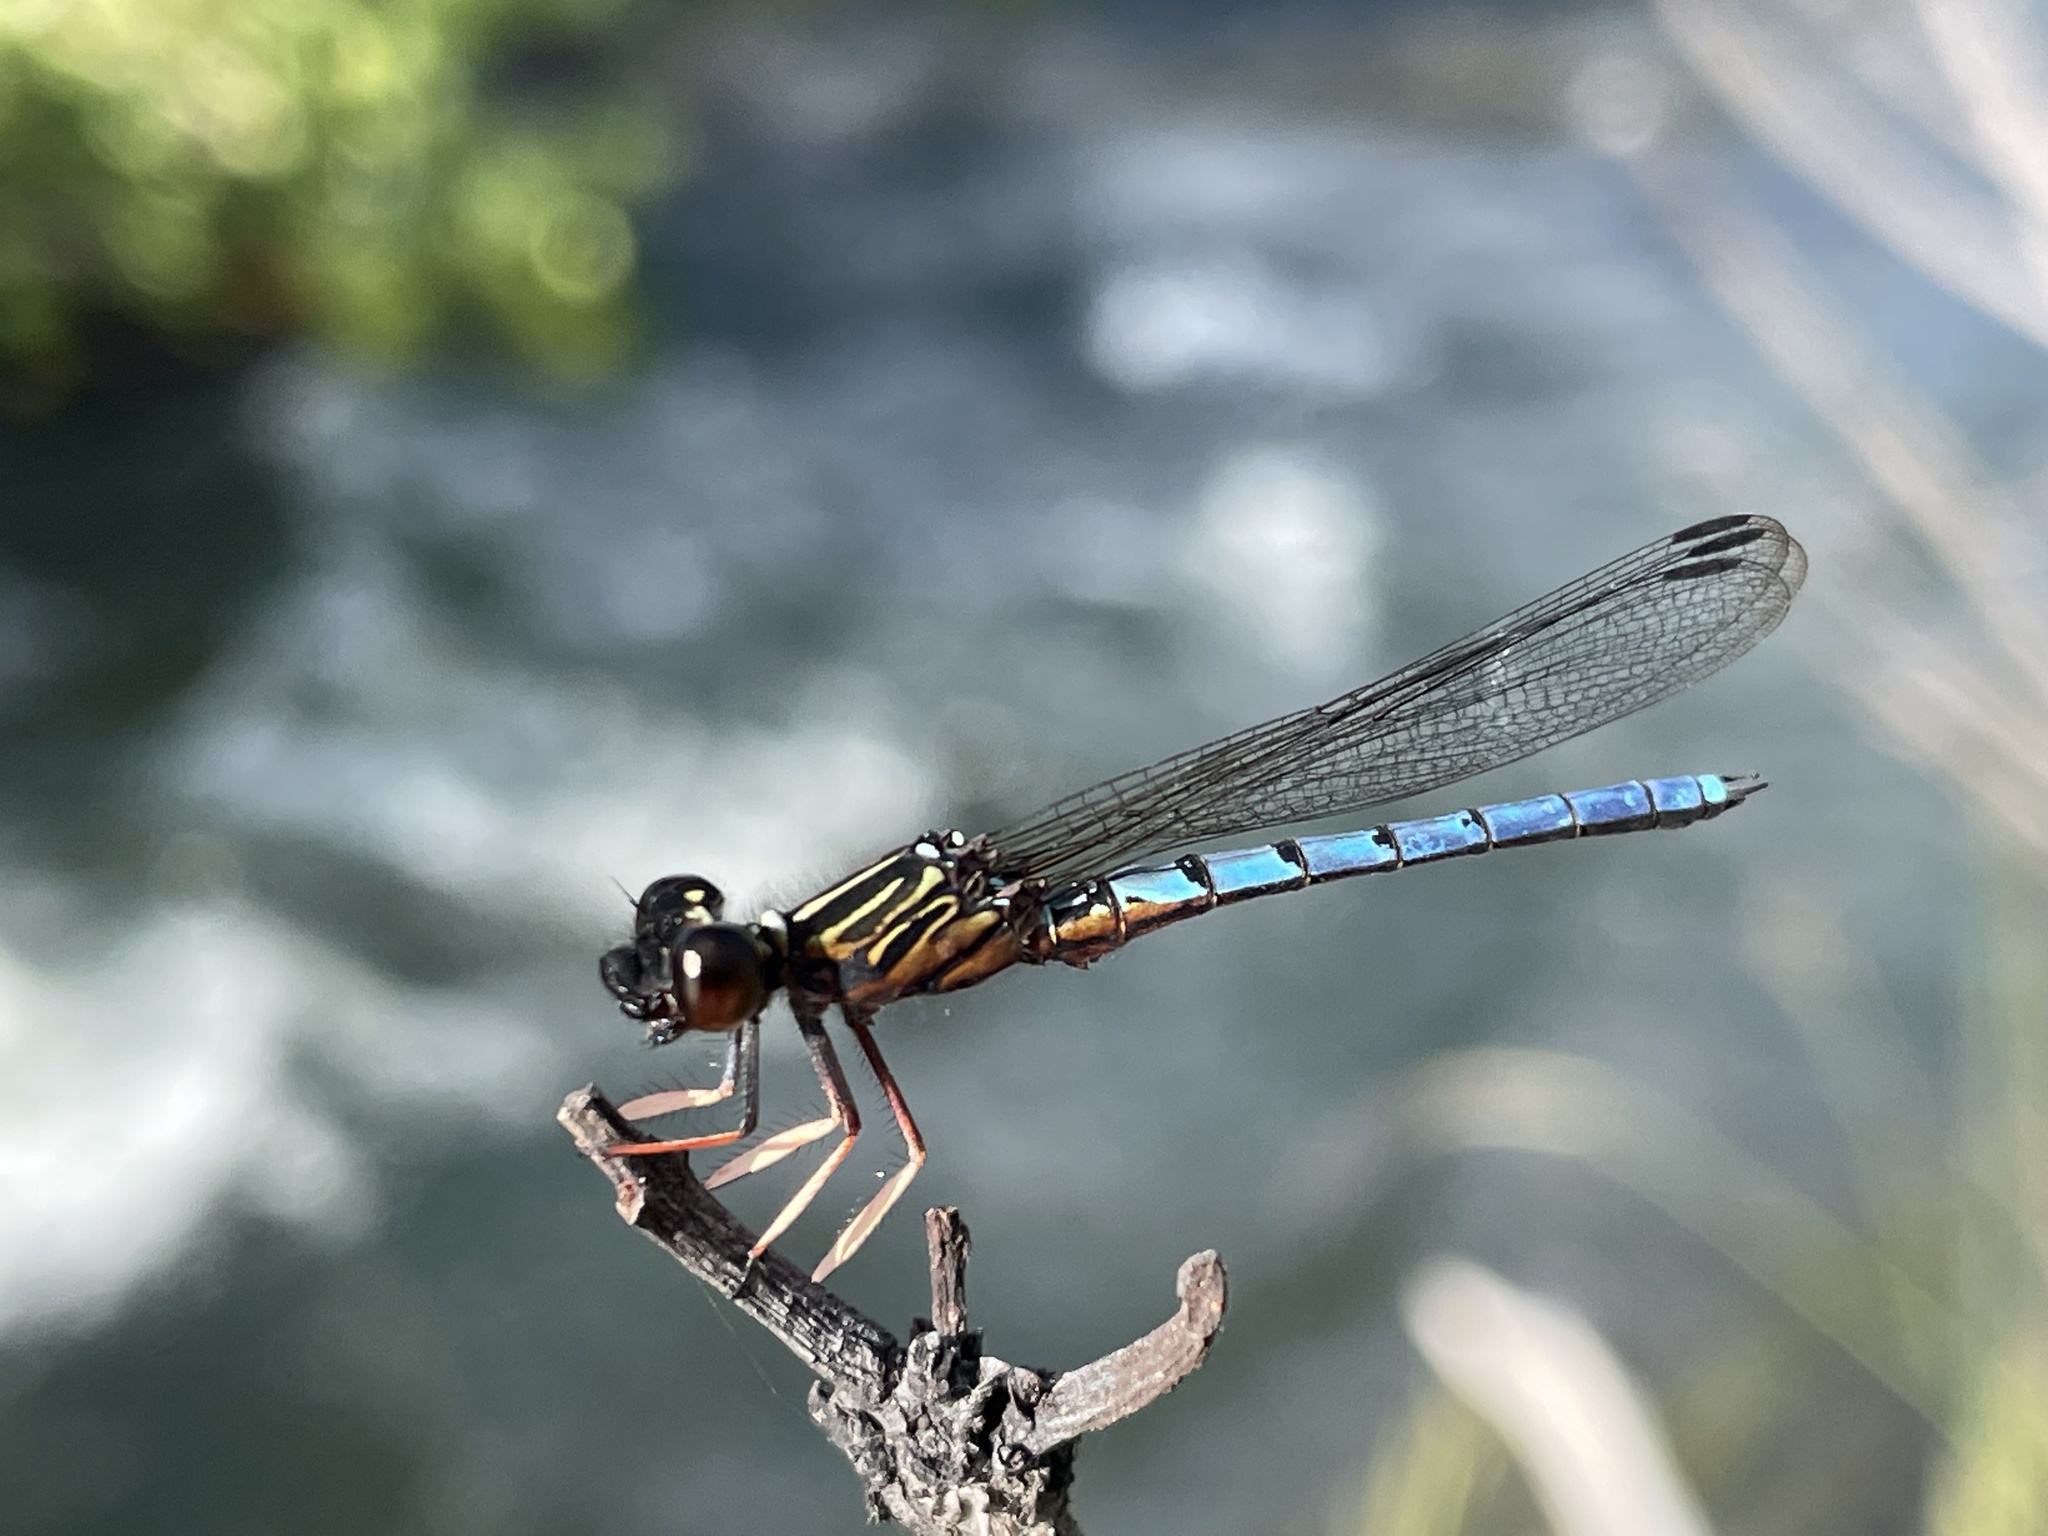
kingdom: Animalia
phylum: Arthropoda
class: Insecta
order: Odonata
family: Chlorocyphidae
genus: Platycypha
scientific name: Platycypha angolensis
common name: Angola dancing jewel
